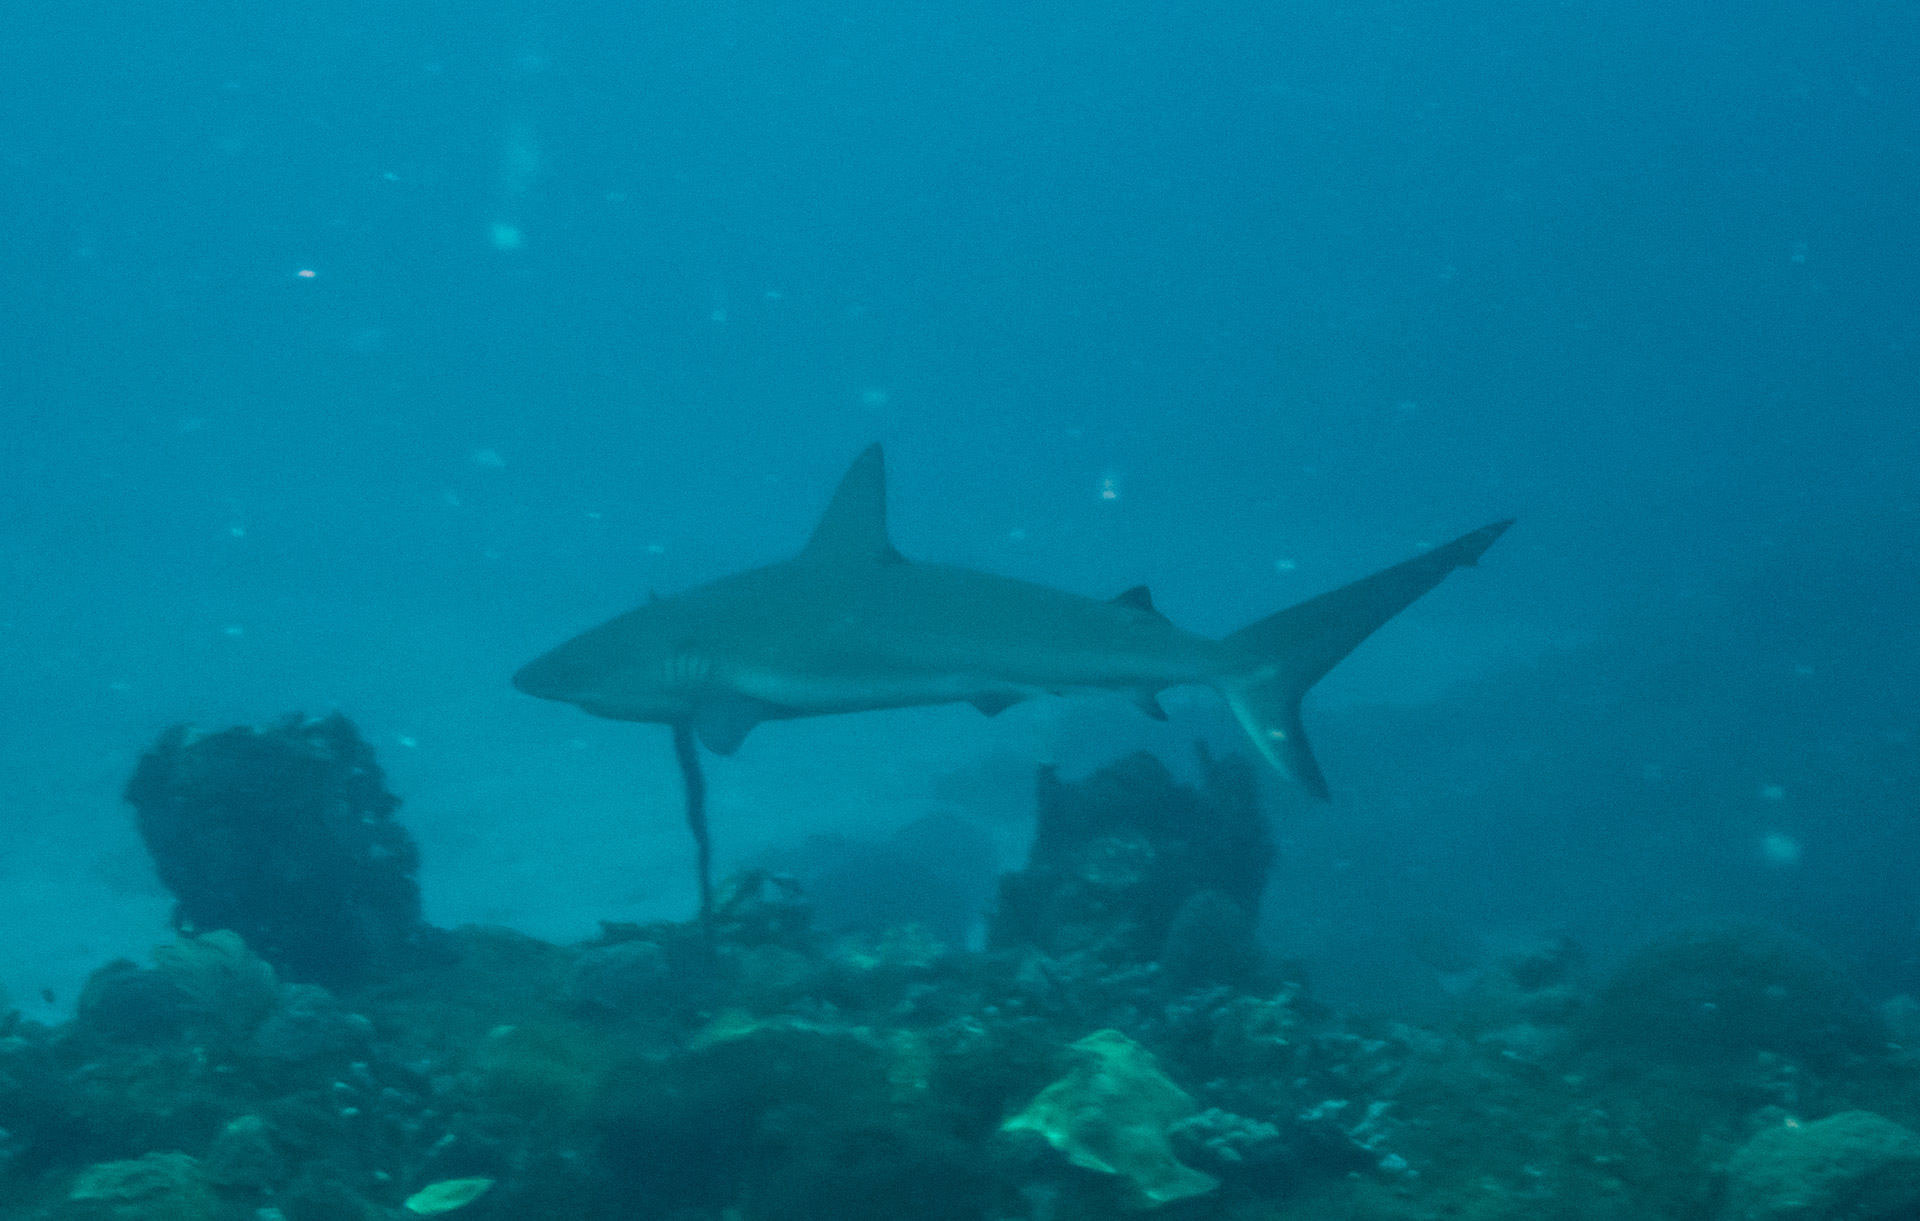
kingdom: Animalia
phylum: Chordata
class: Elasmobranchii
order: Carcharhiniformes
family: Carcharhinidae
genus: Carcharhinus
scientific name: Carcharhinus perezii
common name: Reef shark
